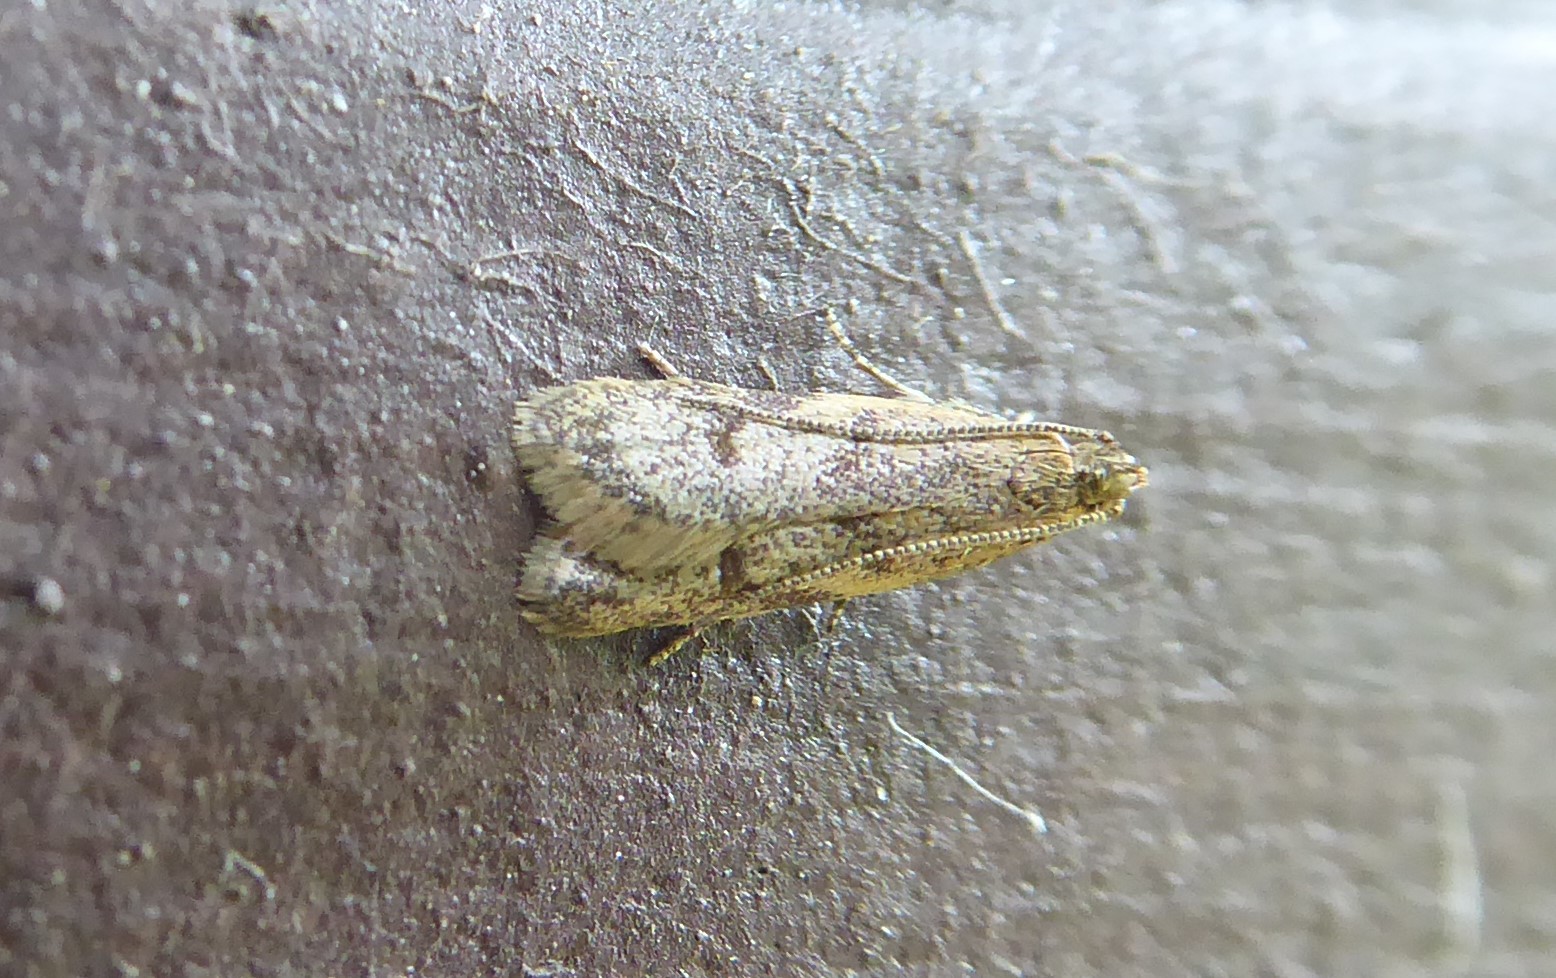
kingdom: Animalia
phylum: Arthropoda
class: Insecta
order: Lepidoptera
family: Oecophoridae
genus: Gymnobathra
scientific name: Gymnobathra tholodella
